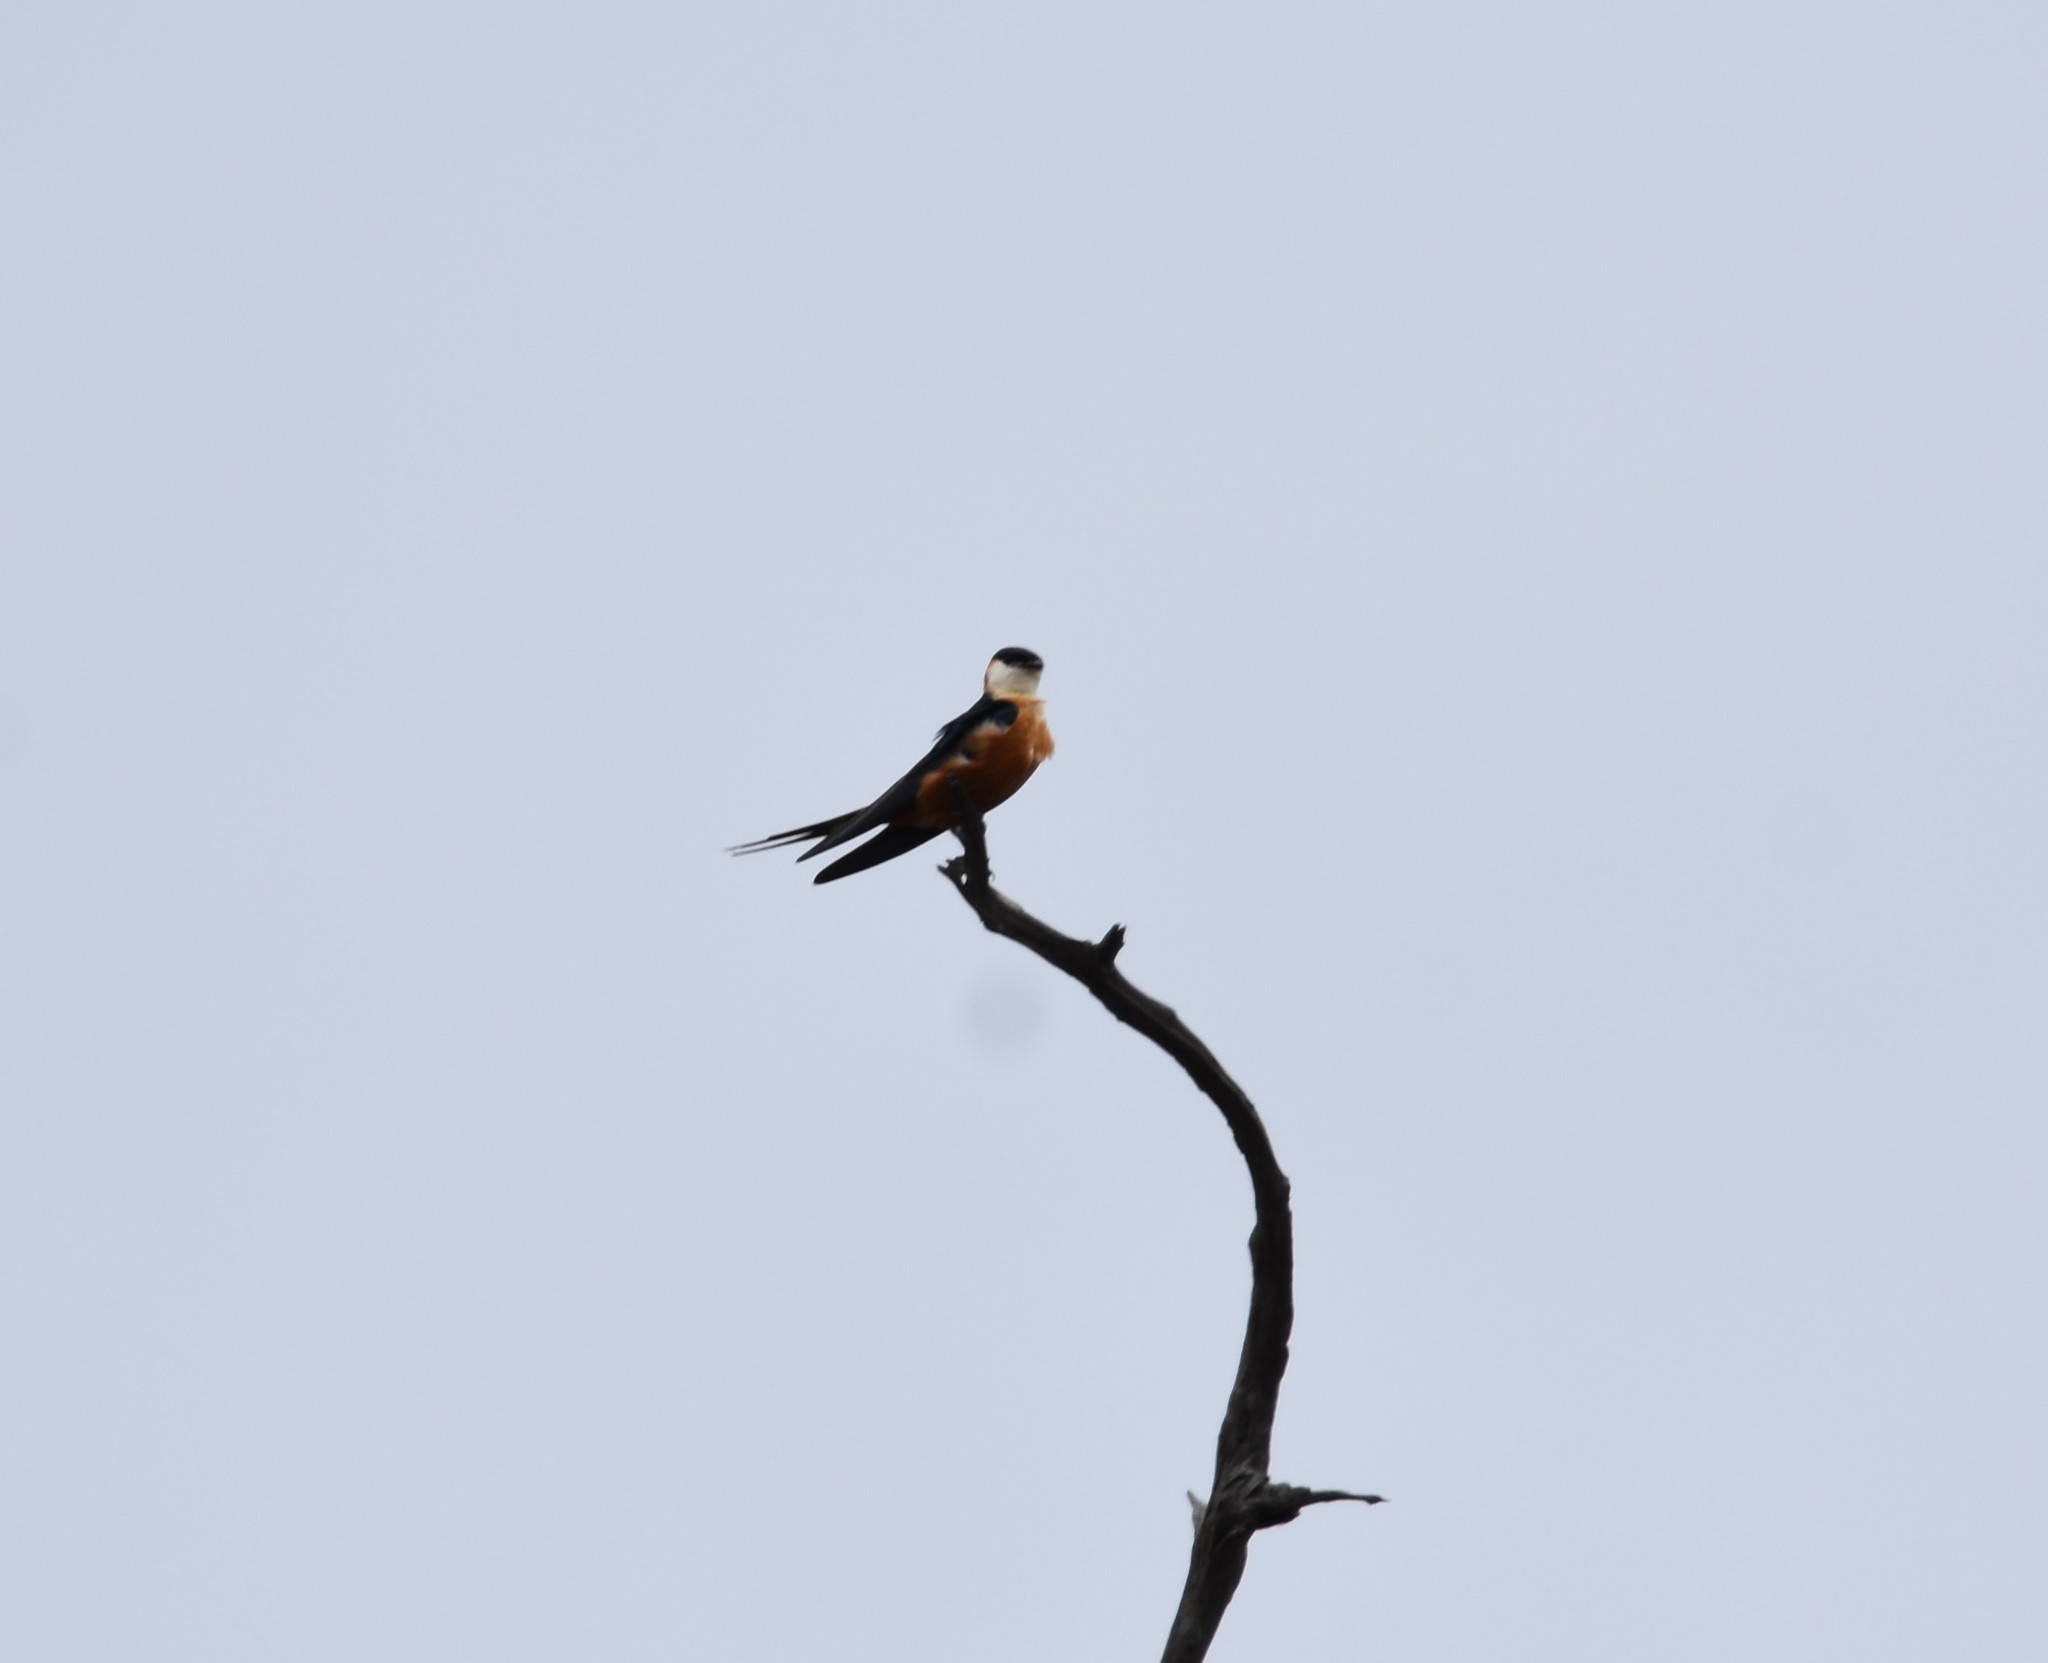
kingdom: Animalia
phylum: Chordata
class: Aves
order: Passeriformes
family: Hirundinidae
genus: Cecropis
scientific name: Cecropis senegalensis
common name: Mosque swallow
